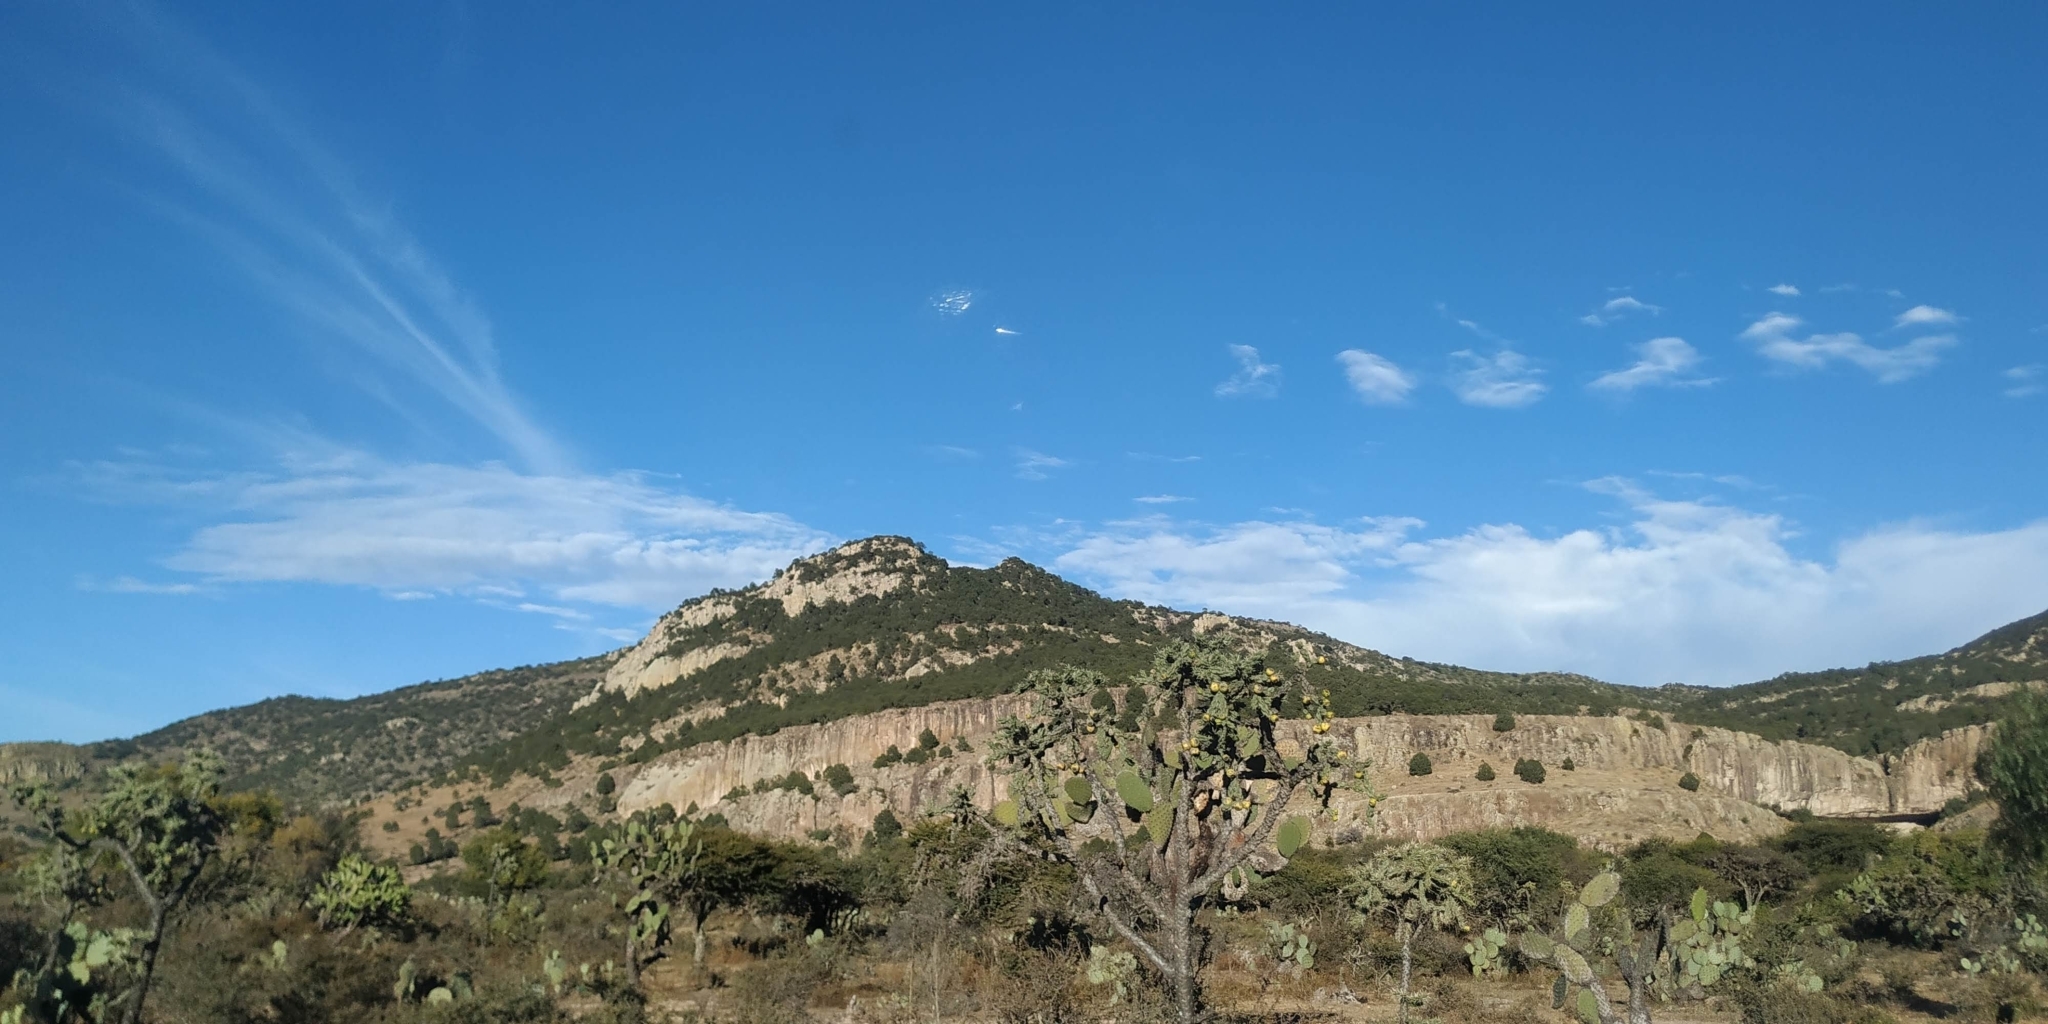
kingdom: Plantae
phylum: Tracheophyta
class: Magnoliopsida
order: Caryophyllales
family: Cactaceae
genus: Cylindropuntia
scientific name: Cylindropuntia imbricata
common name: Candelabrum cactus
